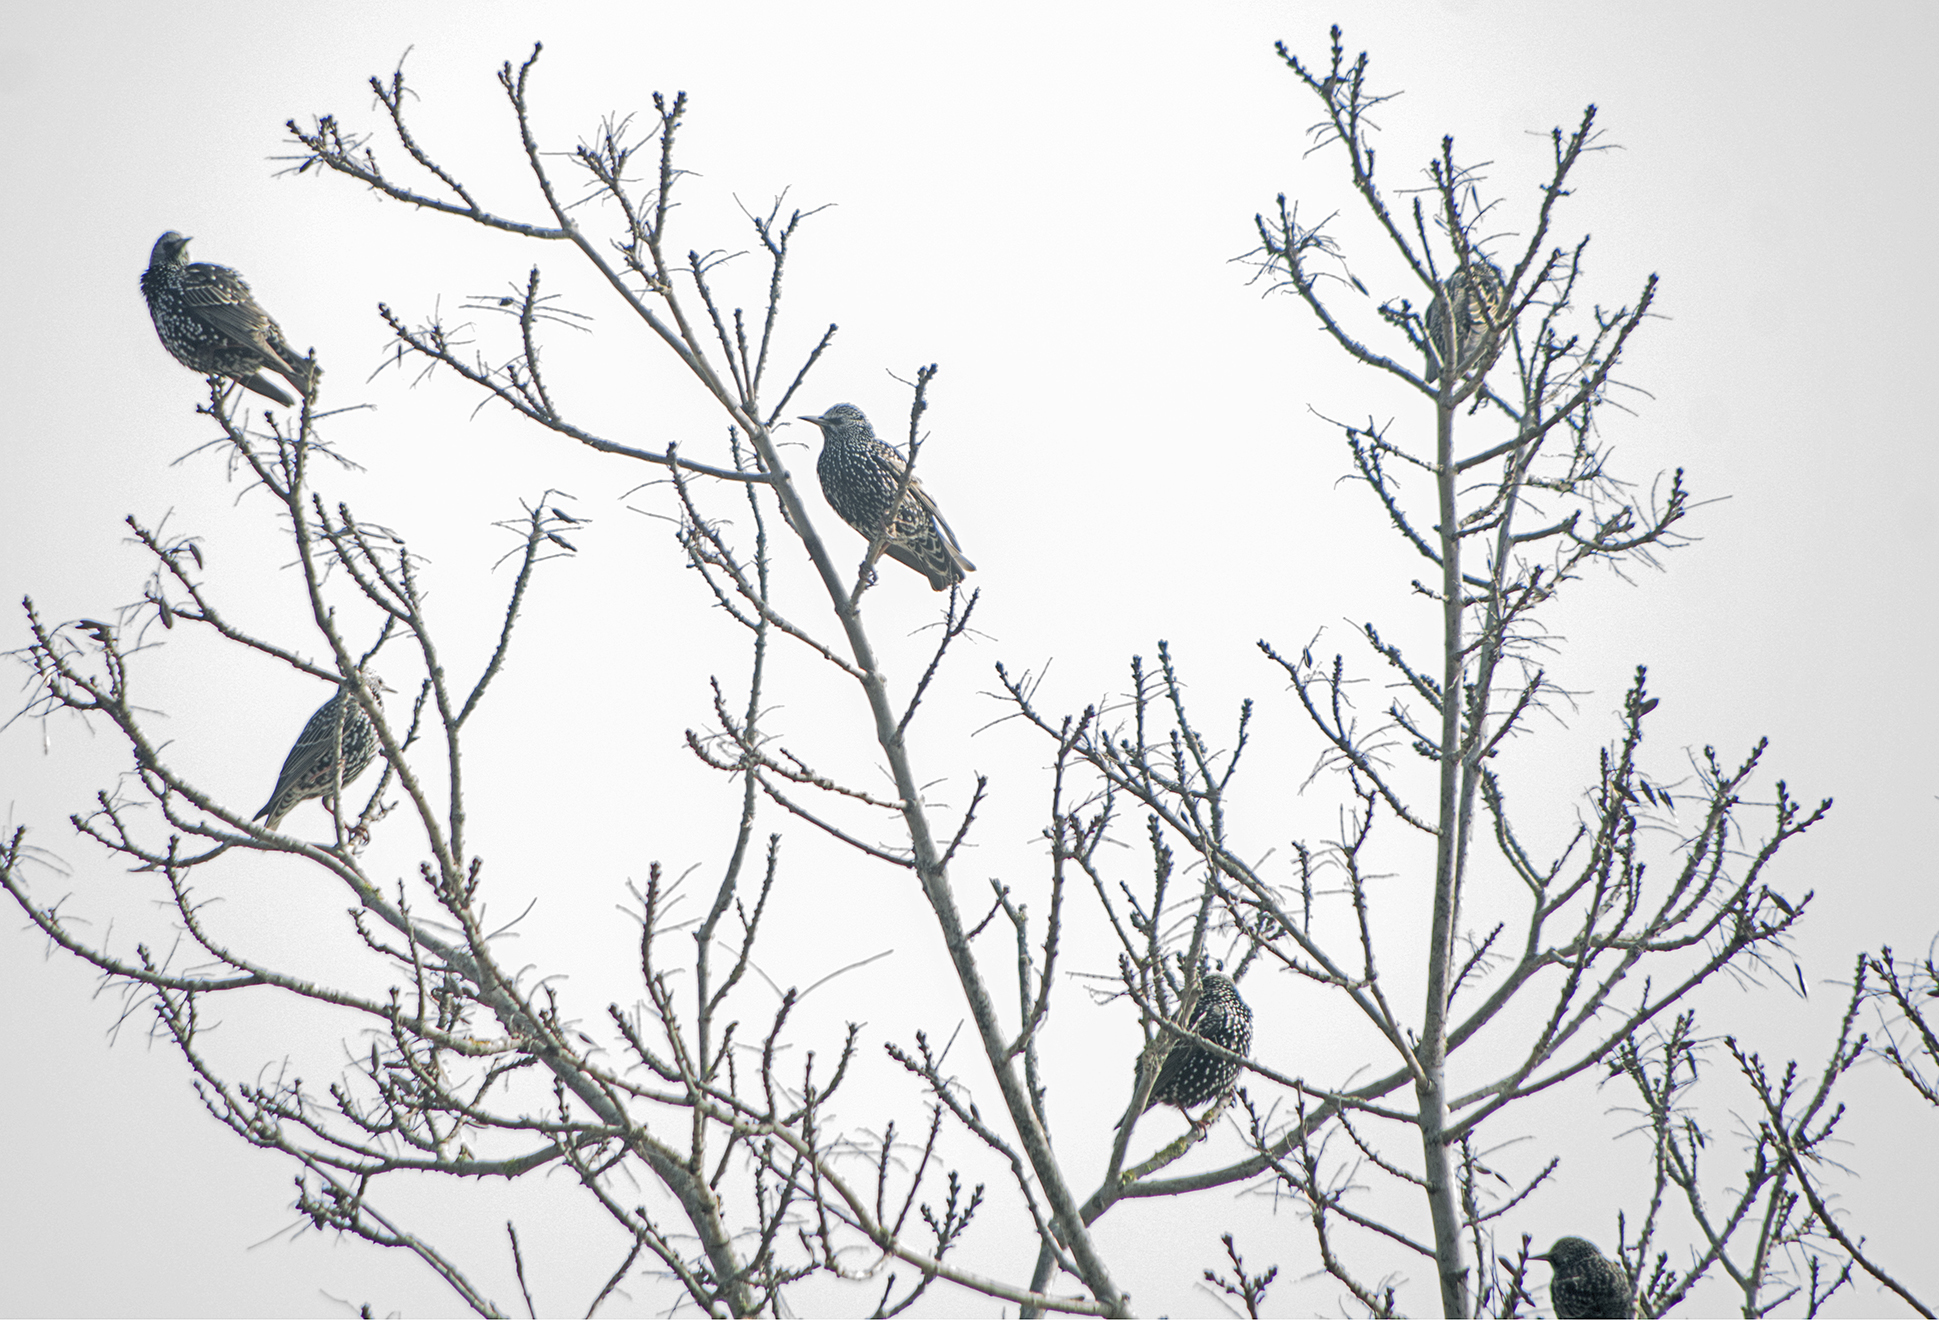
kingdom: Animalia
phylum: Chordata
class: Aves
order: Passeriformes
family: Sturnidae
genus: Sturnus
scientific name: Sturnus vulgaris
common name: Common starling
